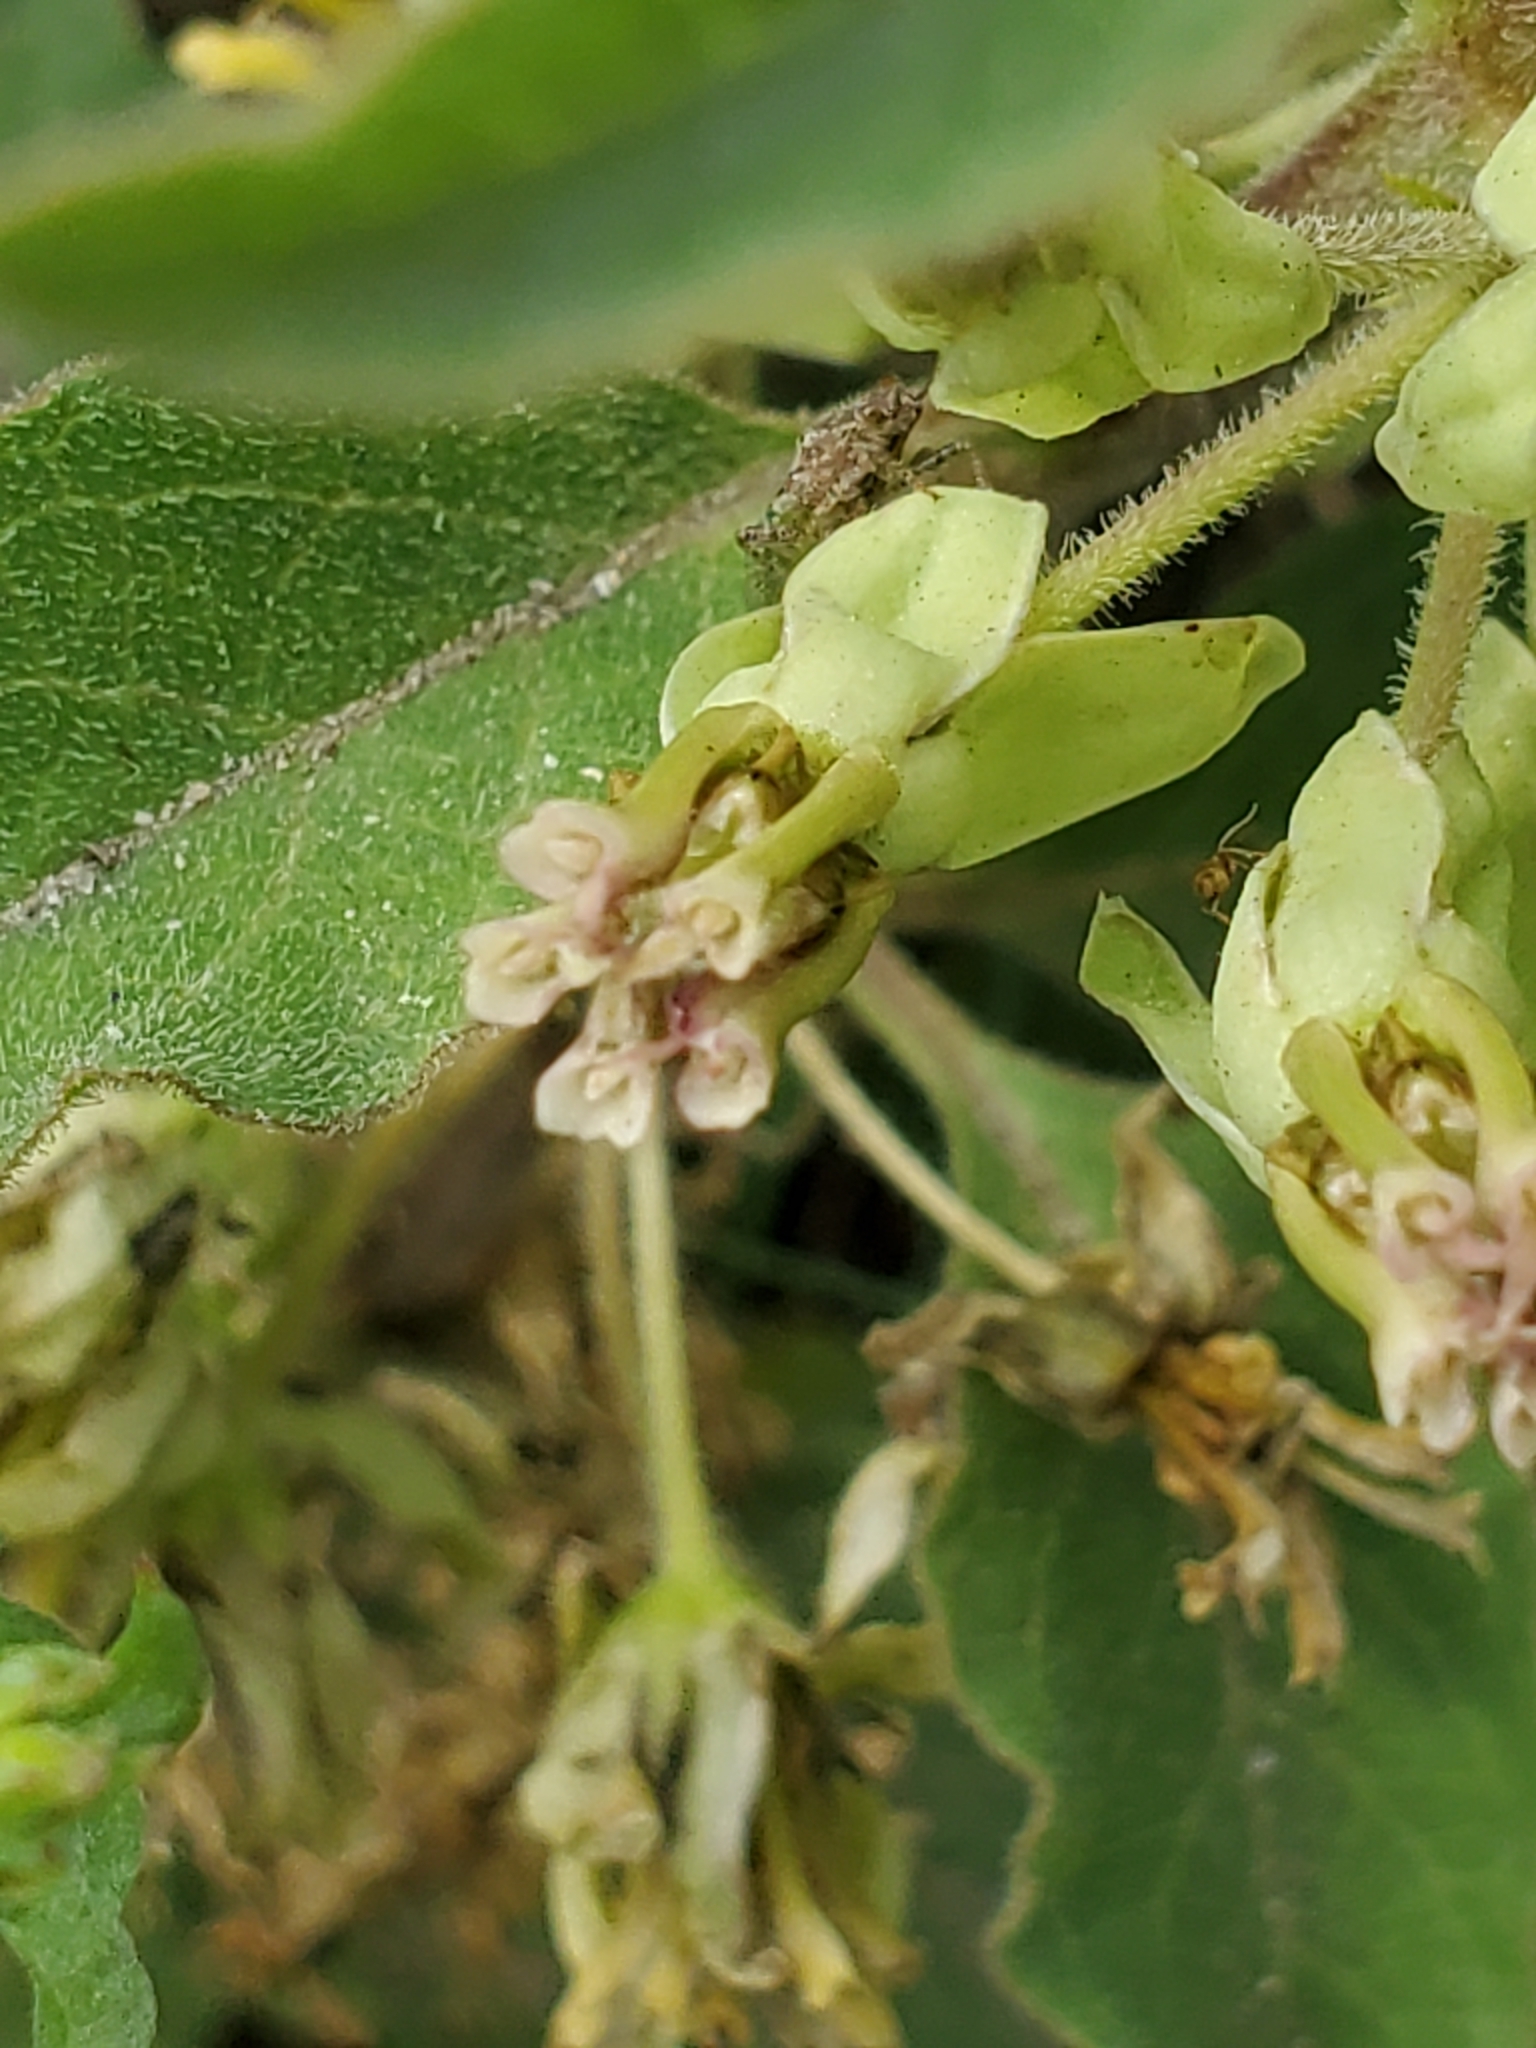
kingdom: Plantae
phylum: Tracheophyta
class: Magnoliopsida
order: Gentianales
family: Apocynaceae
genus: Asclepias
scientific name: Asclepias oenotheroides
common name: Zizotes milkweed
